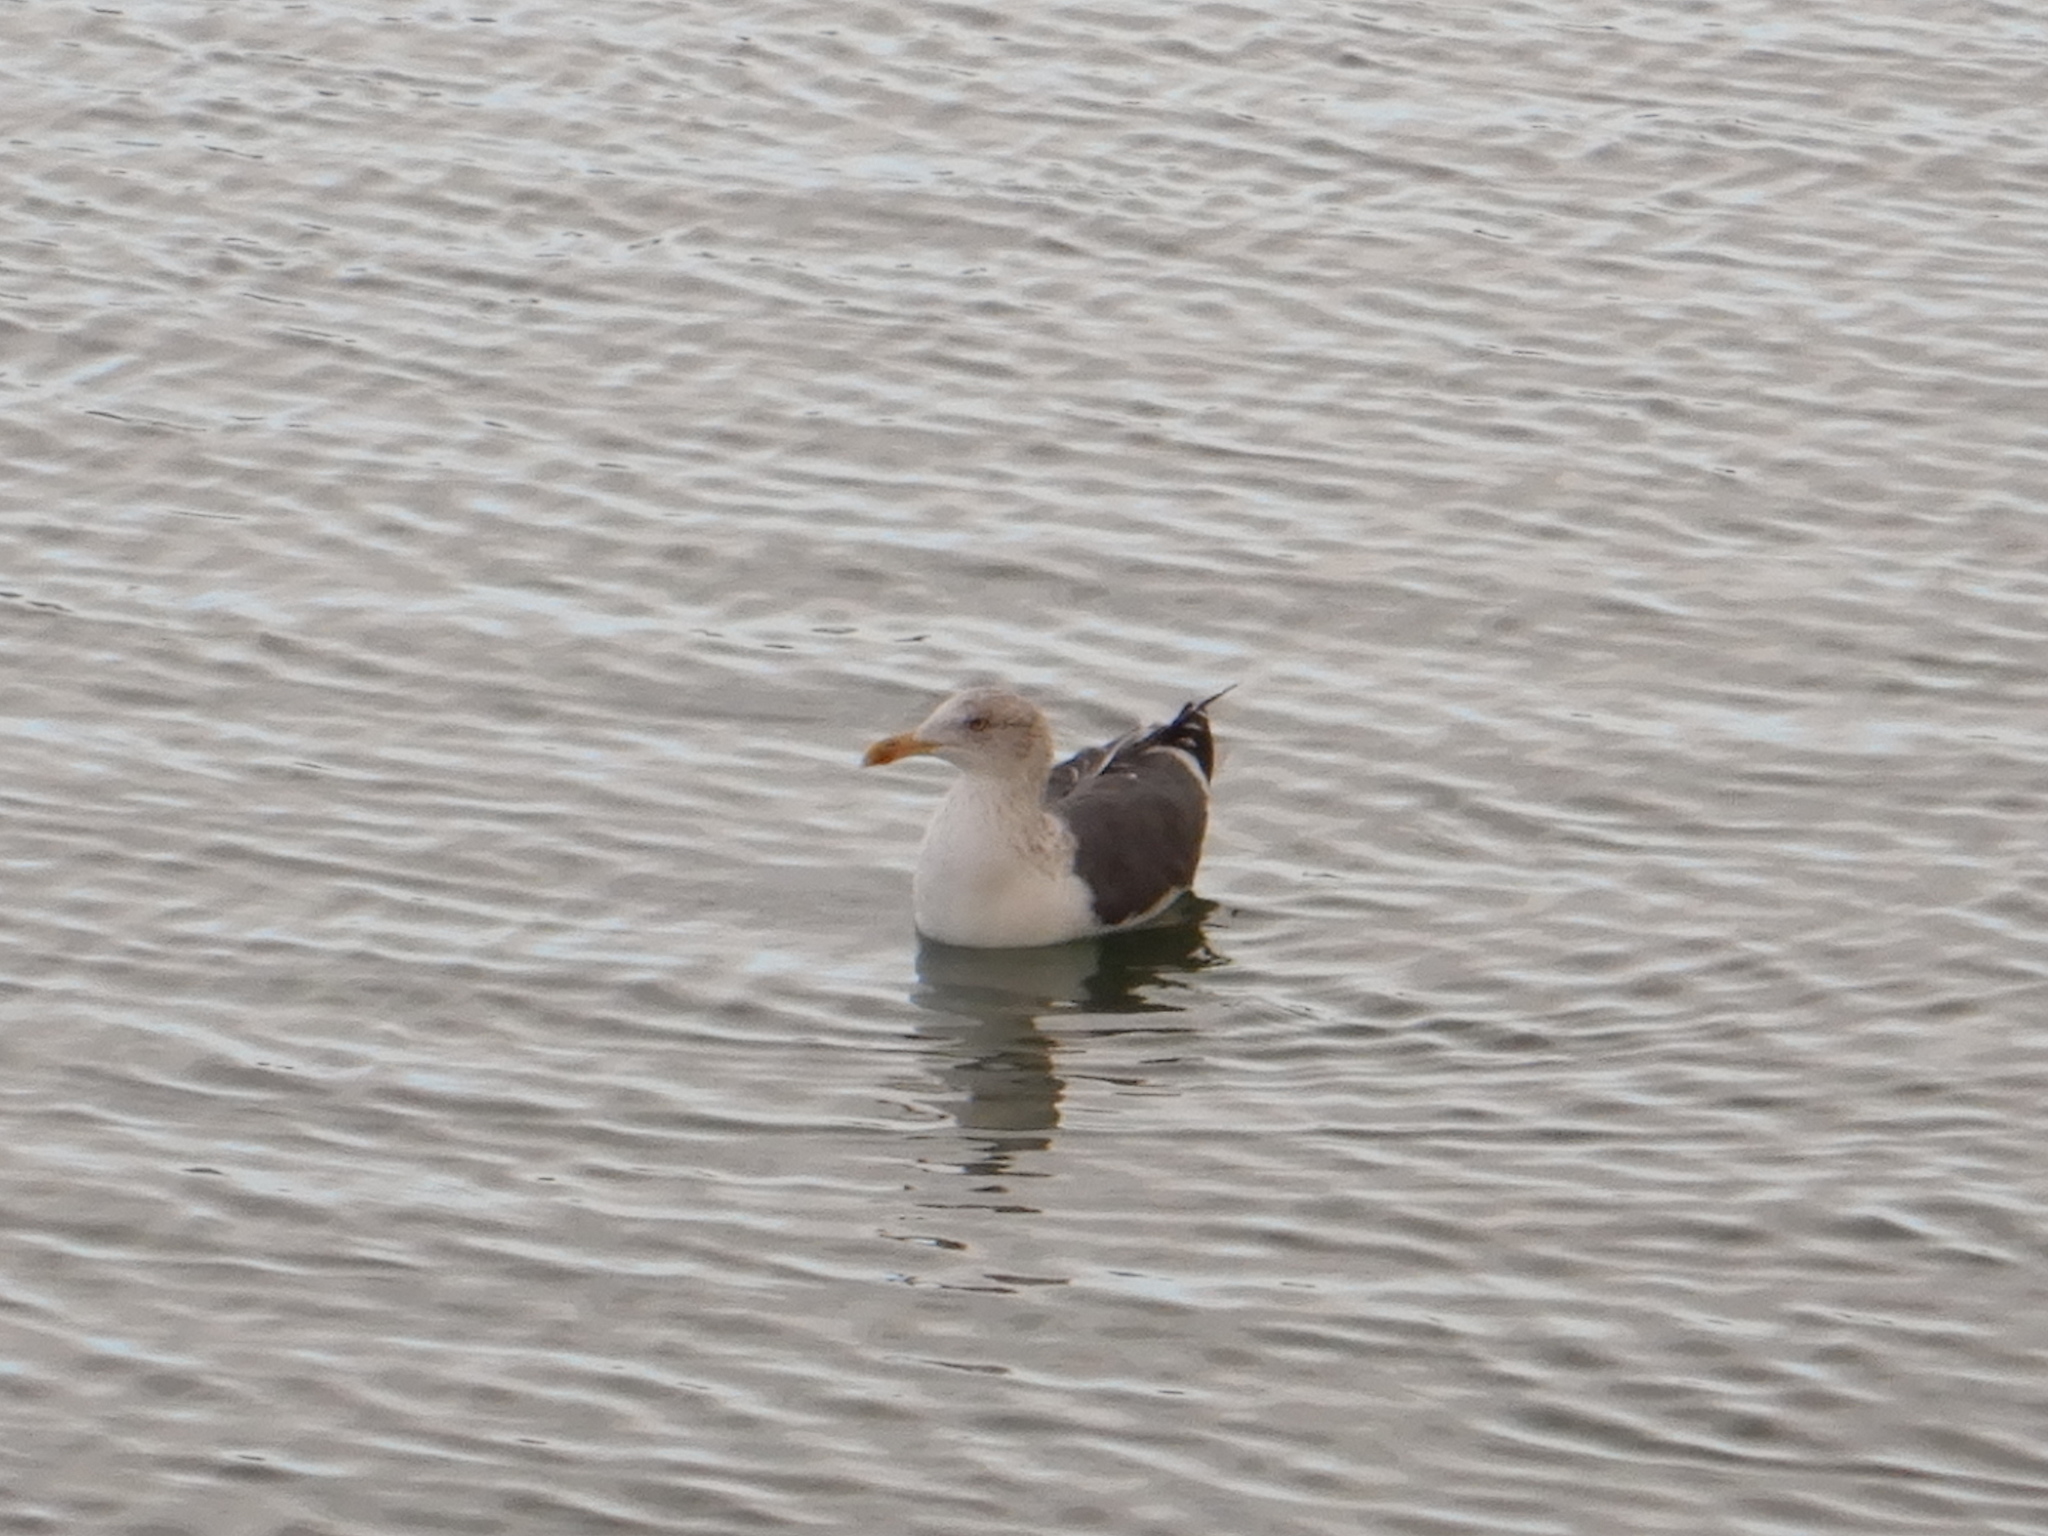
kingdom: Animalia
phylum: Chordata
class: Aves
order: Charadriiformes
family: Laridae
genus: Larus
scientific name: Larus fuscus
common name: Lesser black-backed gull
